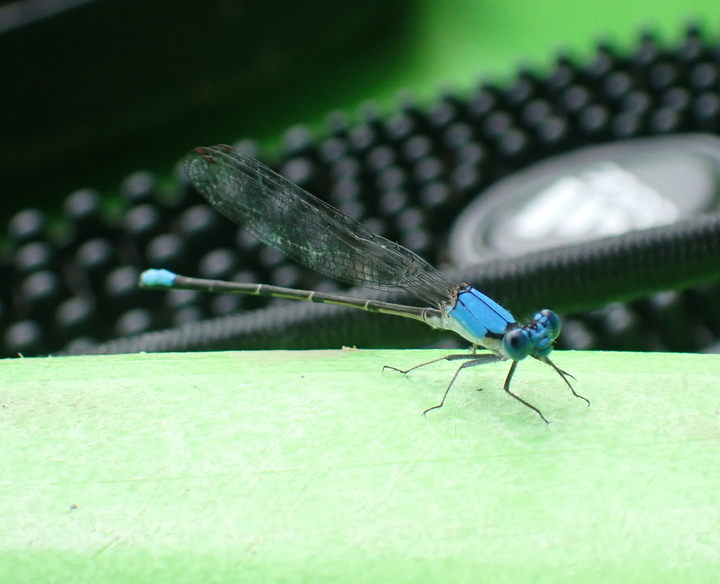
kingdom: Animalia
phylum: Arthropoda
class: Insecta
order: Odonata
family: Coenagrionidae
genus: Argia
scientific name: Argia apicalis
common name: Blue-fronted dancer
